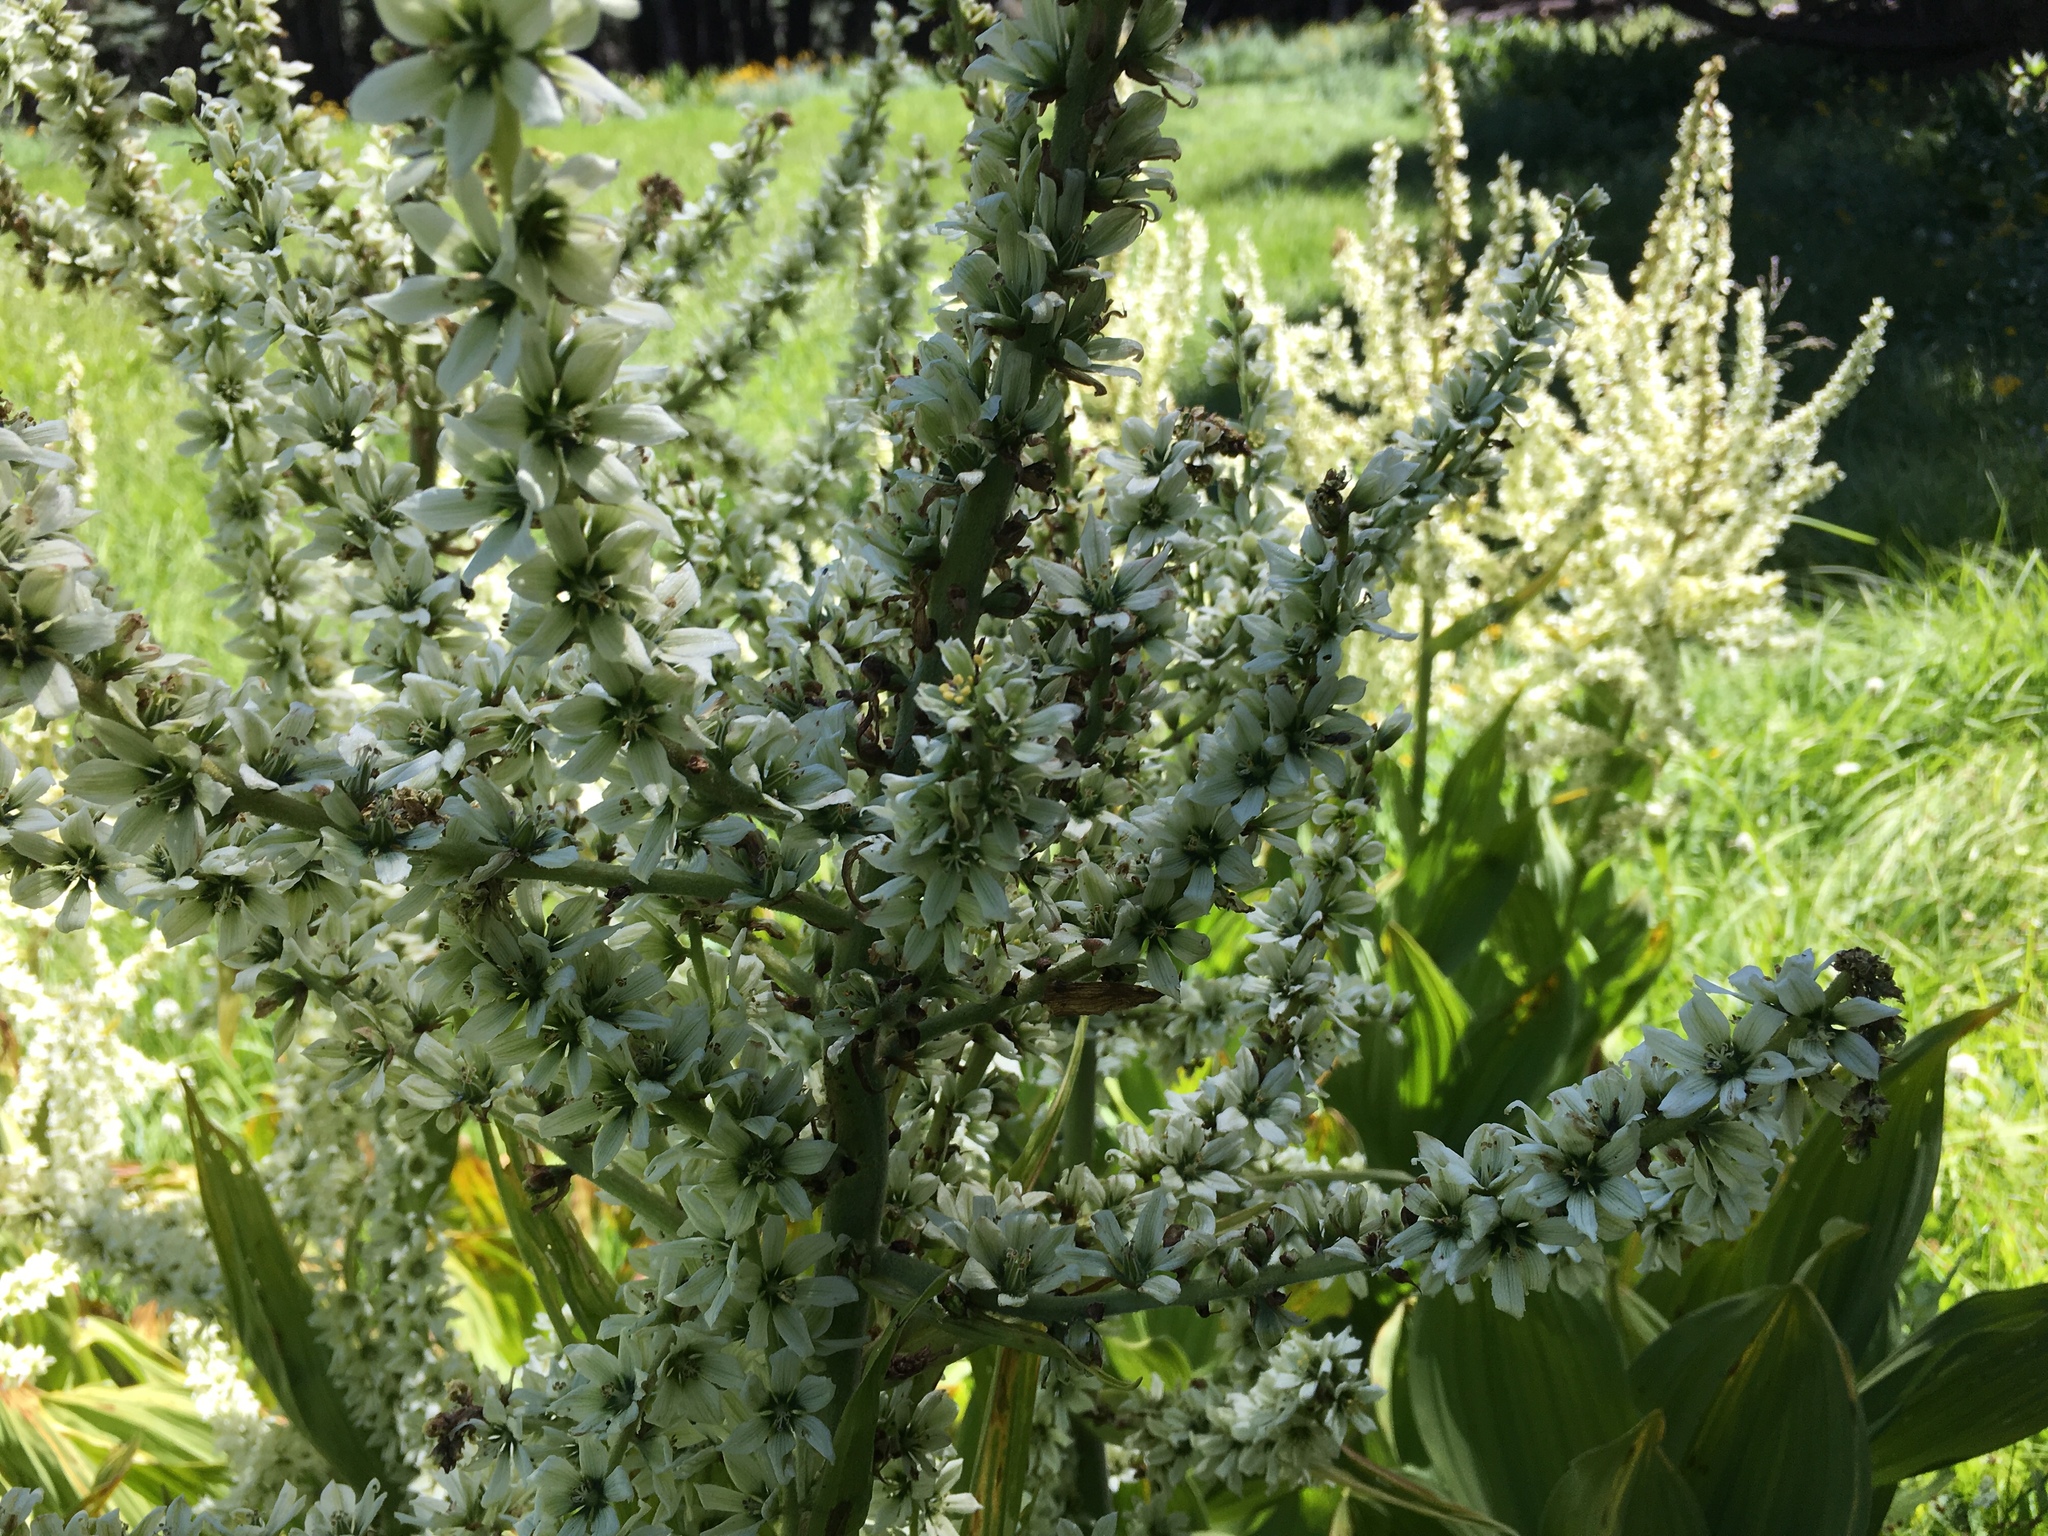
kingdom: Plantae
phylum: Tracheophyta
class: Liliopsida
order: Liliales
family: Melanthiaceae
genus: Veratrum
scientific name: Veratrum californicum
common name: California veratrum
